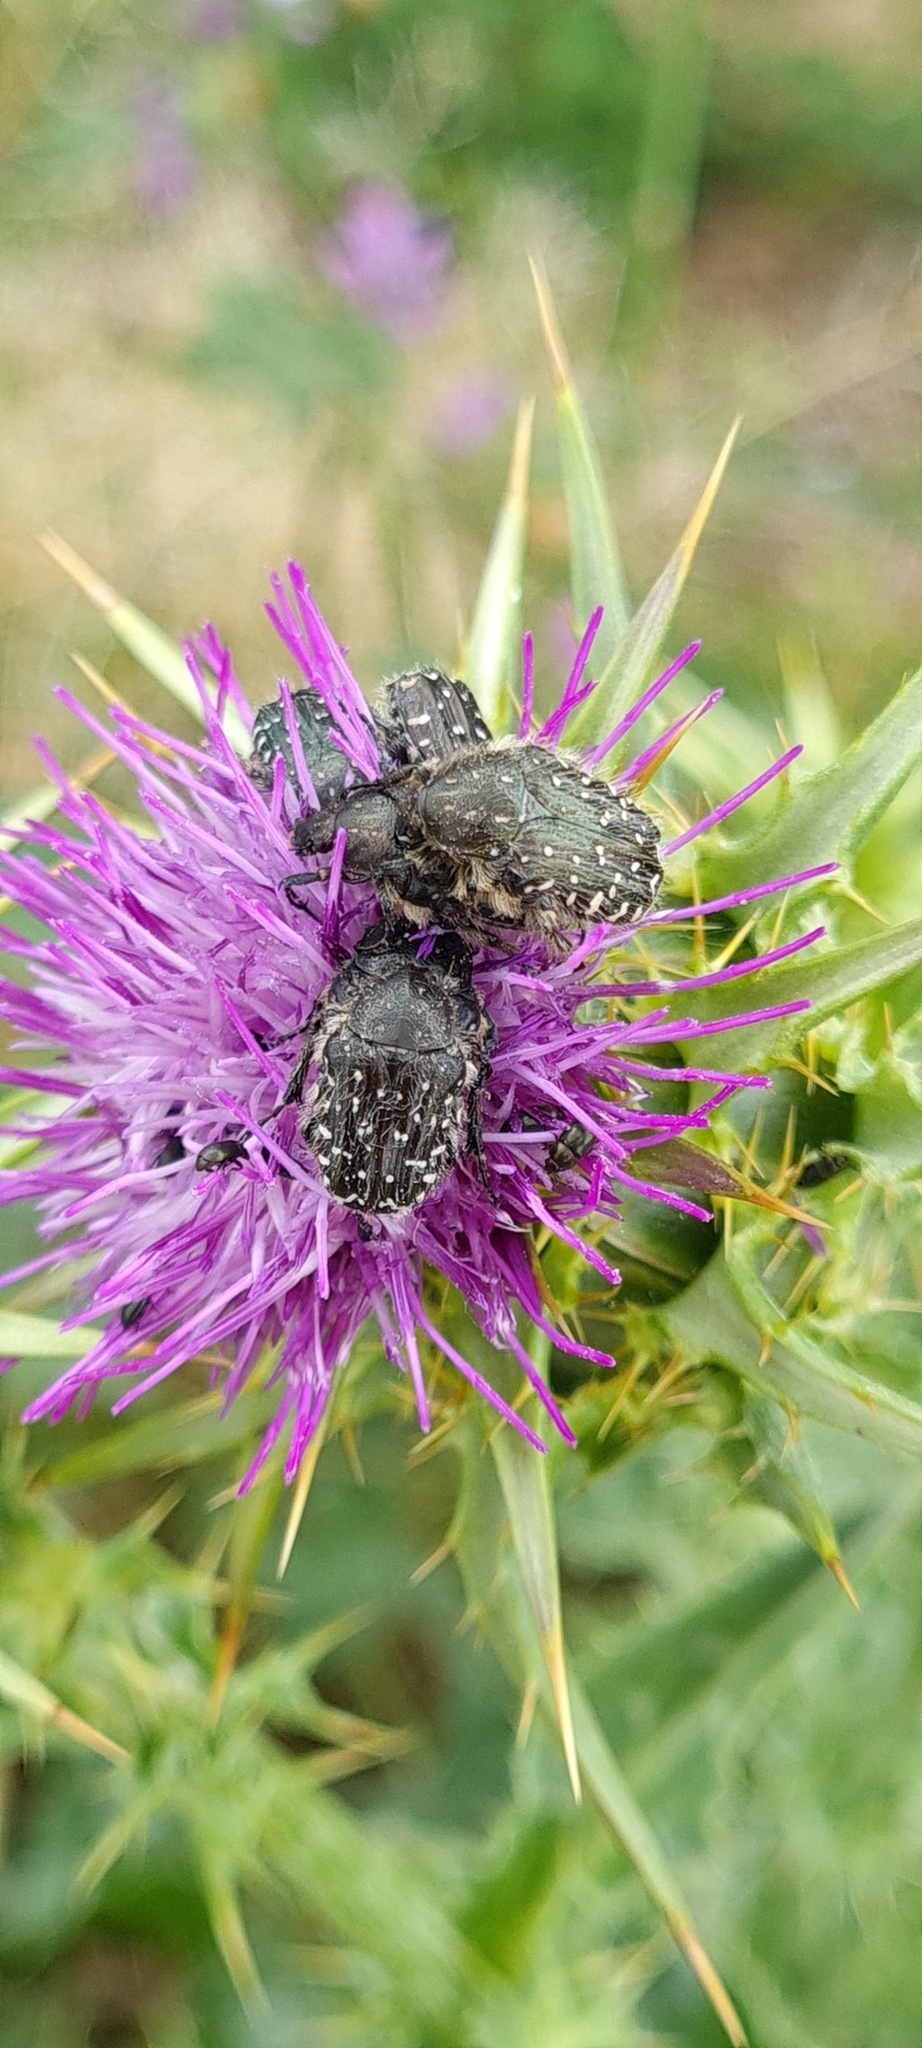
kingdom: Animalia
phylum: Arthropoda
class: Insecta
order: Coleoptera
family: Scarabaeidae
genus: Oxythyrea
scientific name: Oxythyrea funesta
